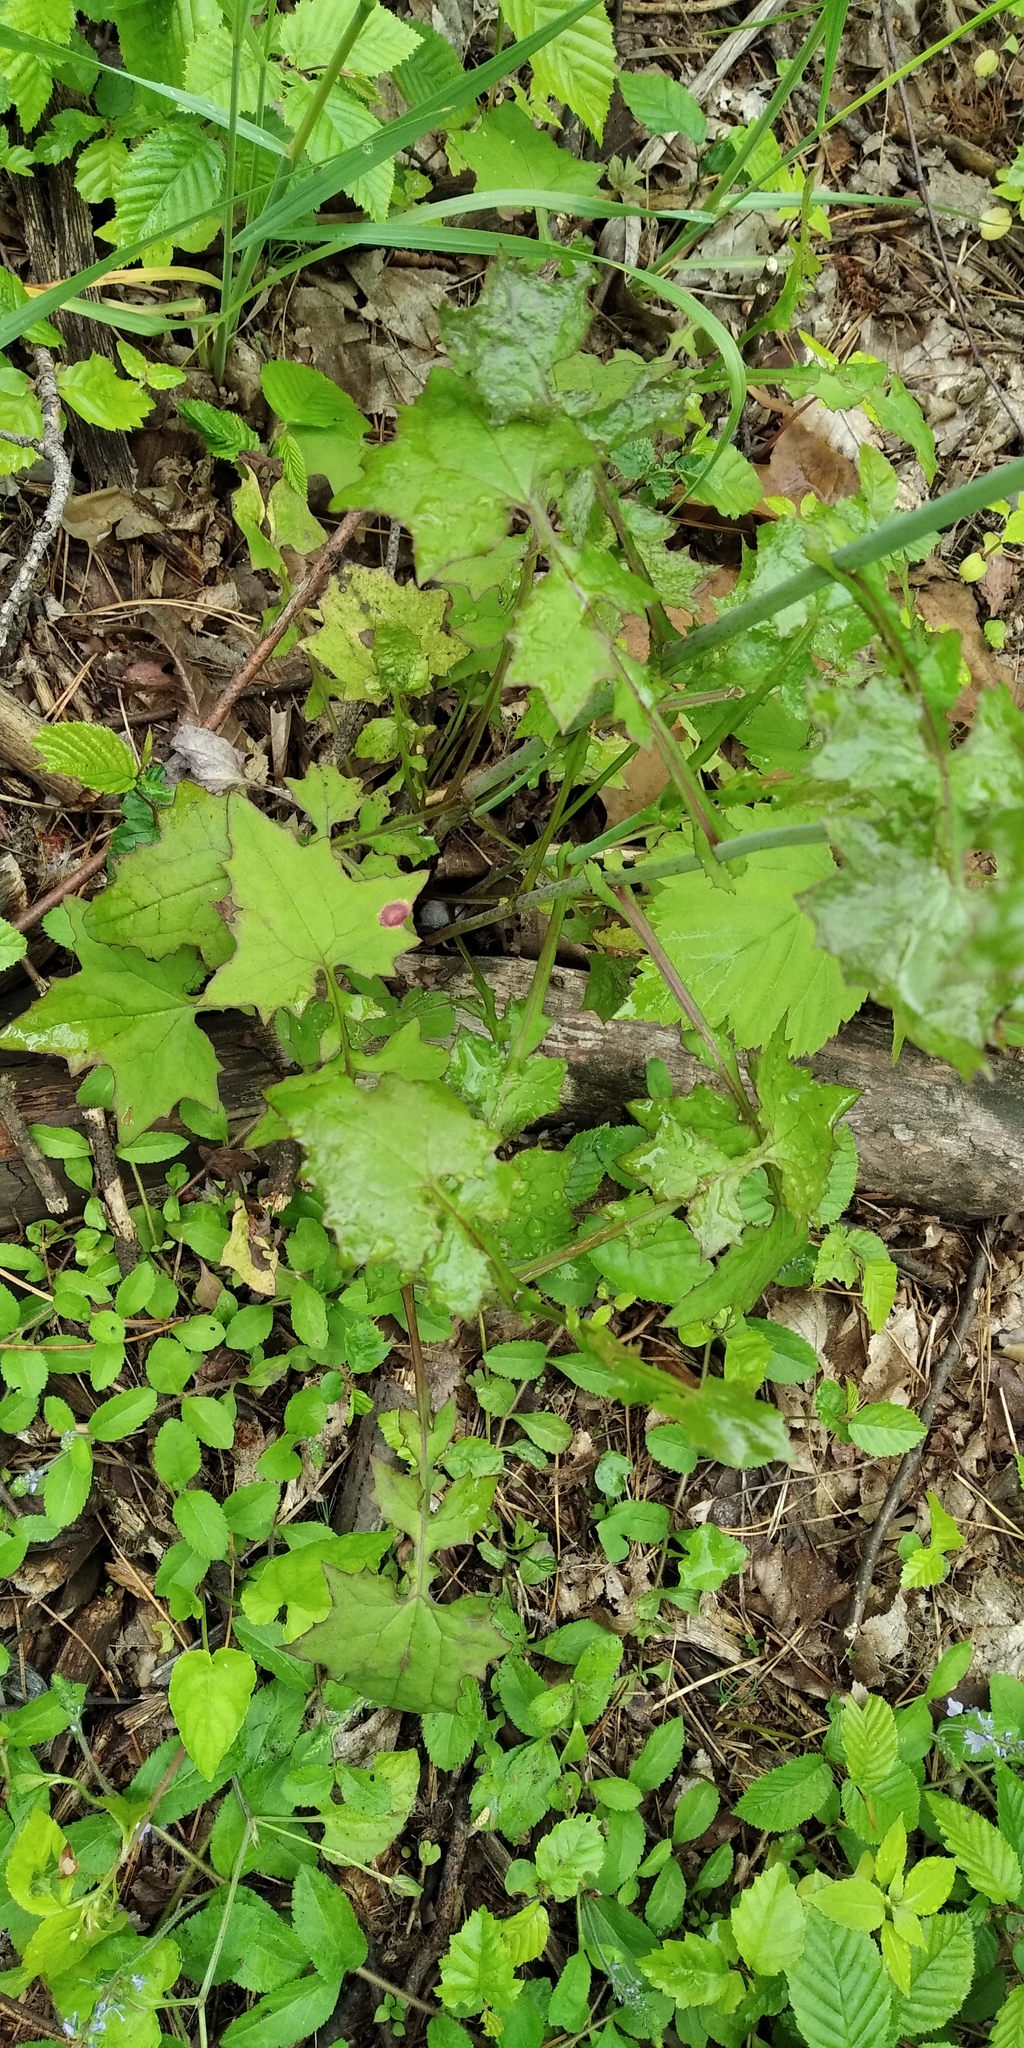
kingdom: Plantae
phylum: Tracheophyta
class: Magnoliopsida
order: Asterales
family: Asteraceae
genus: Mycelis
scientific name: Mycelis muralis
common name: Wall lettuce
